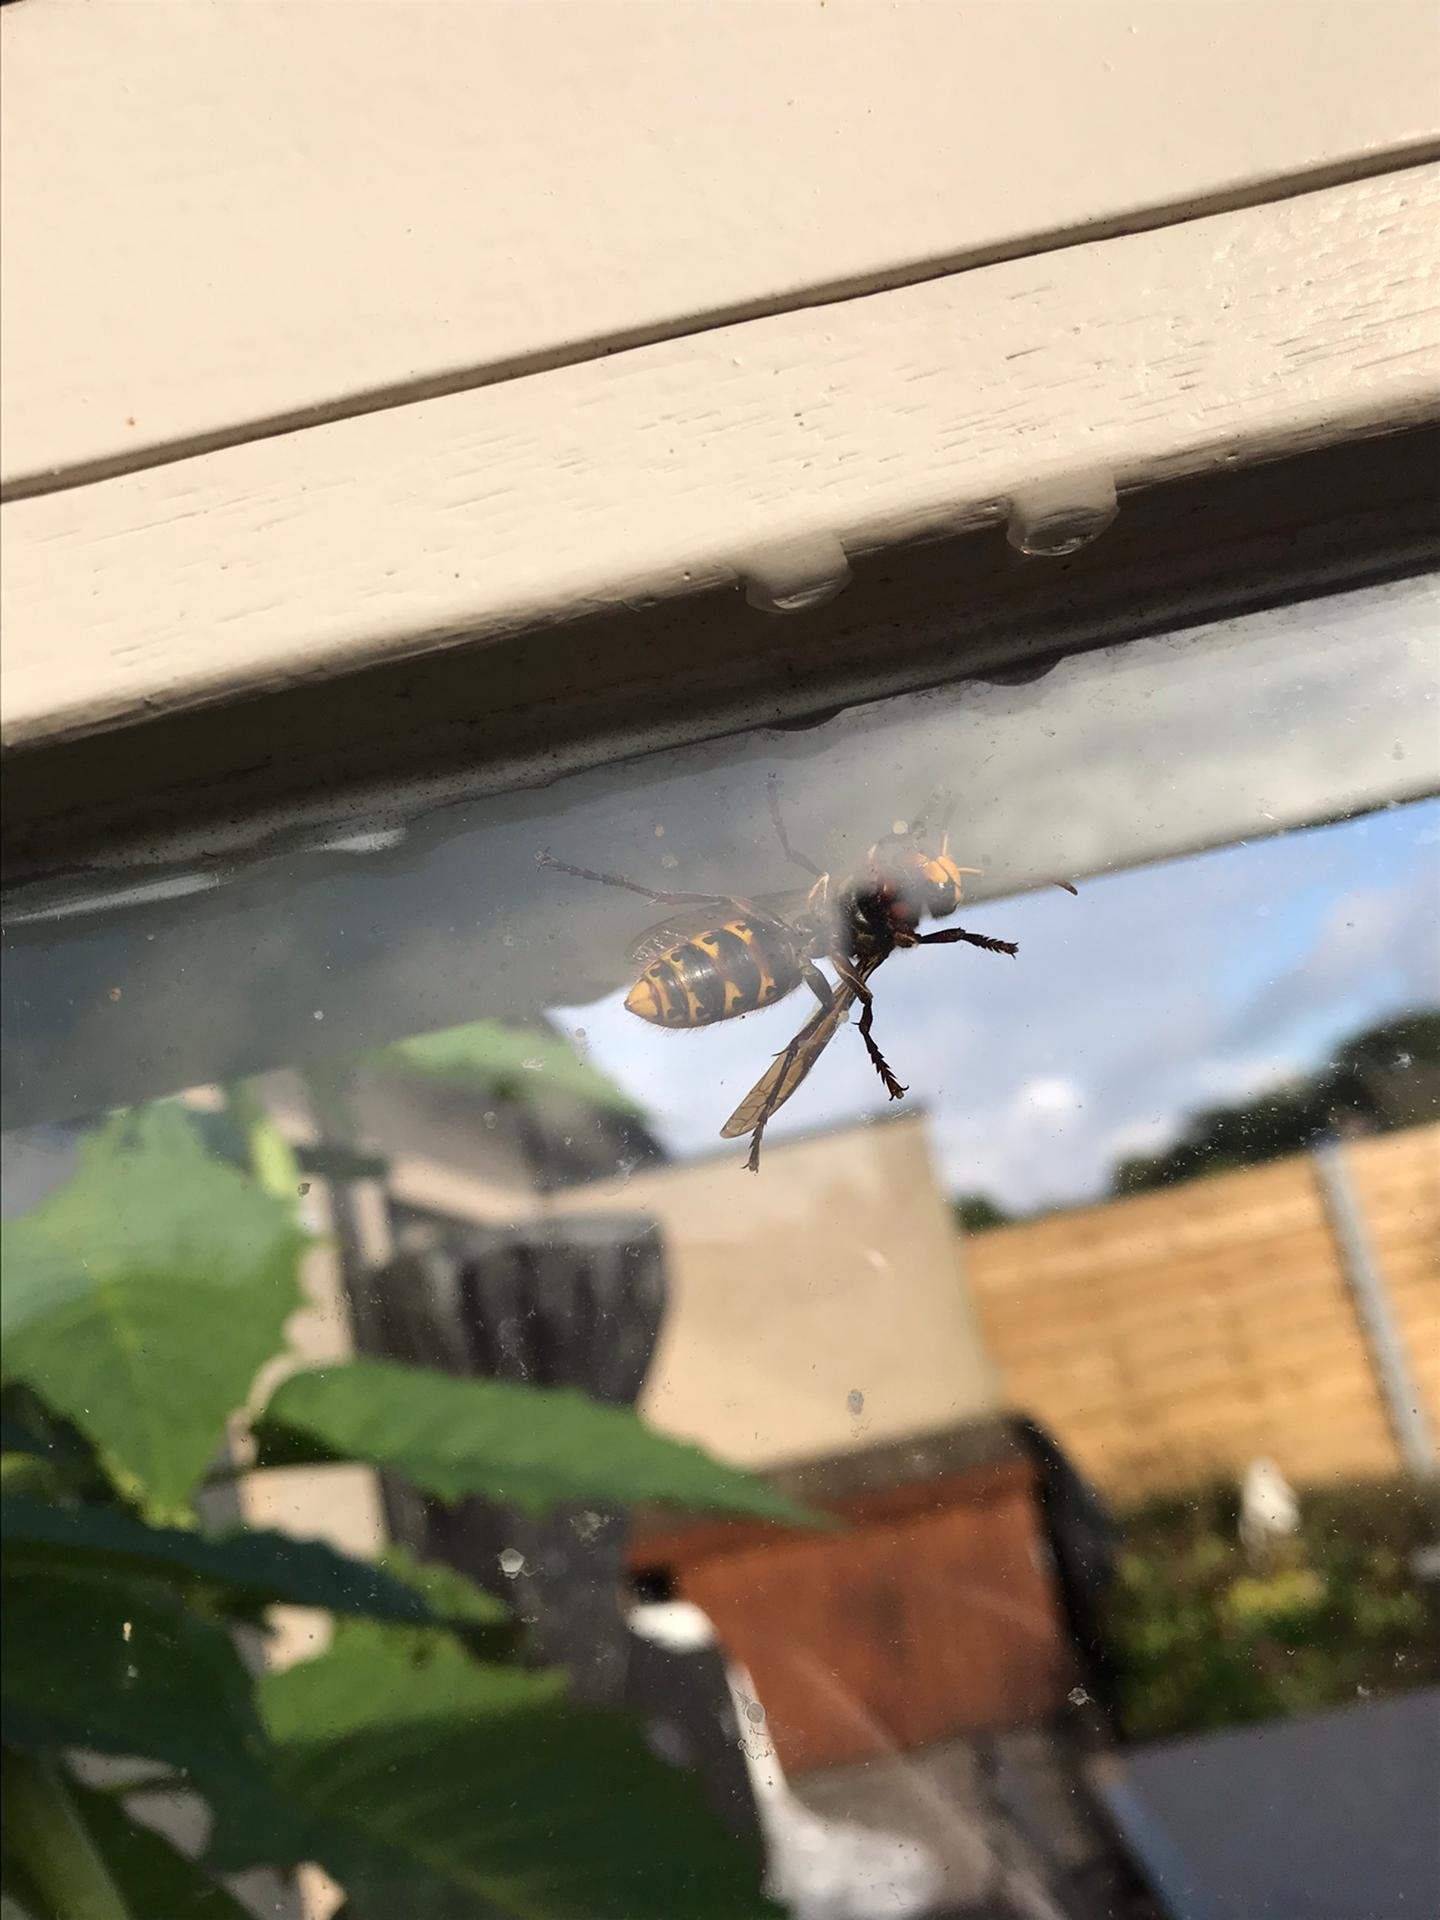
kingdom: Animalia
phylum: Arthropoda
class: Insecta
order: Hymenoptera
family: Vespidae
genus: Vespa
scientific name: Vespa crabro
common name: Hornet
